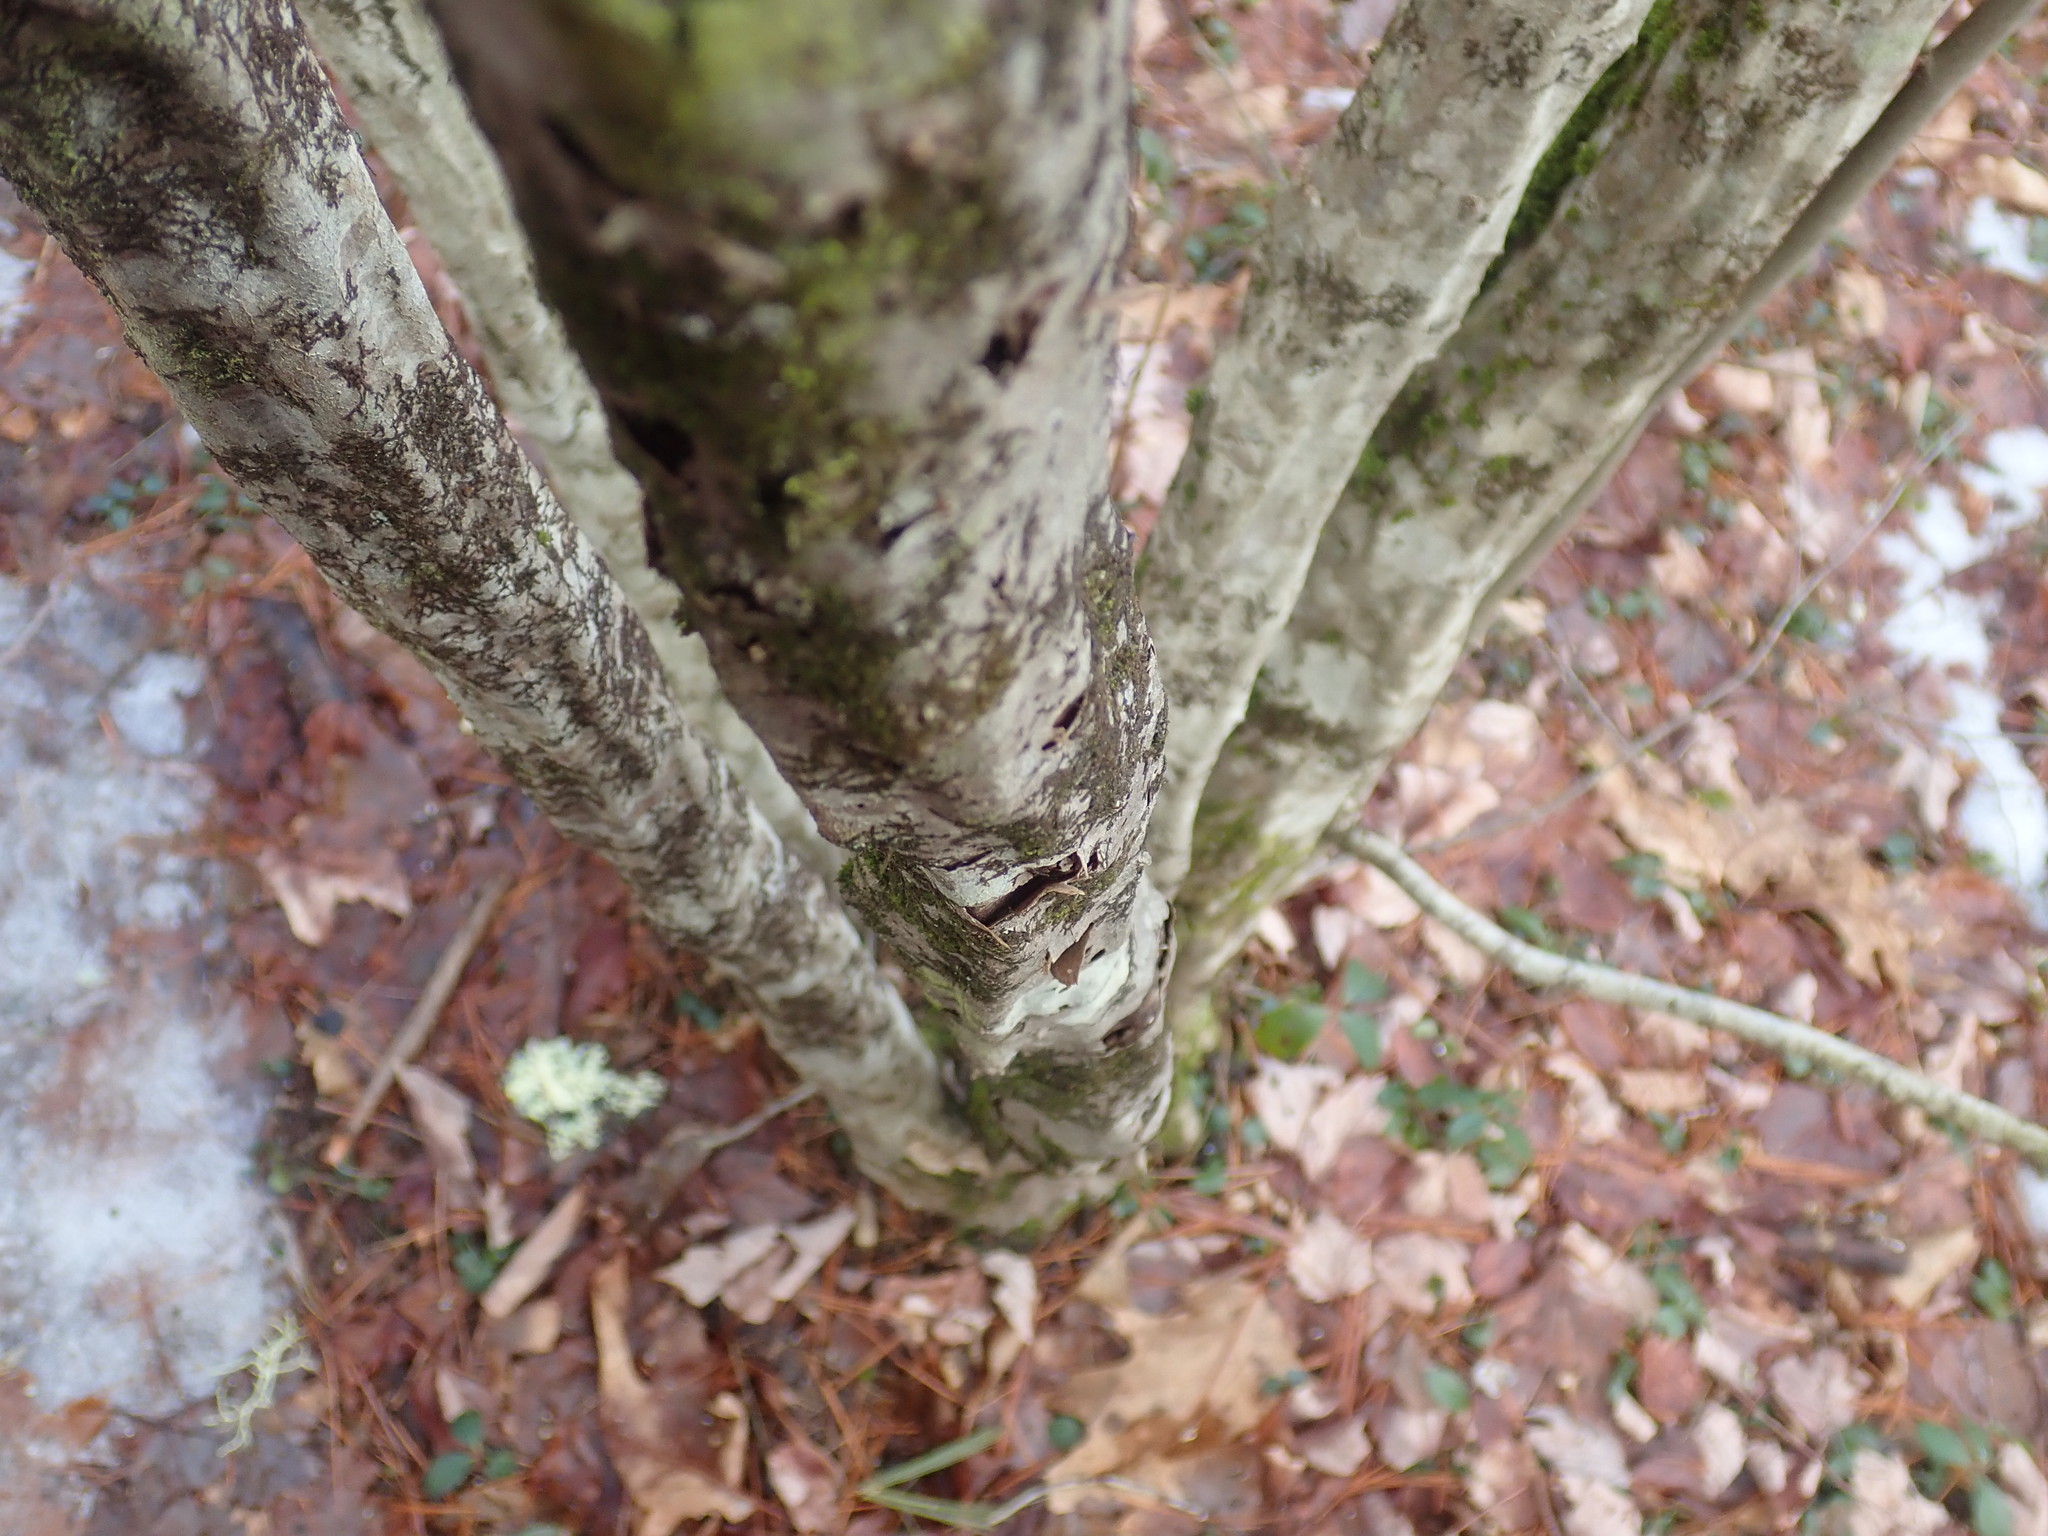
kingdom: Plantae
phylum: Tracheophyta
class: Magnoliopsida
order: Fagales
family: Betulaceae
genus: Carpinus
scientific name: Carpinus caroliniana
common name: American hornbeam
